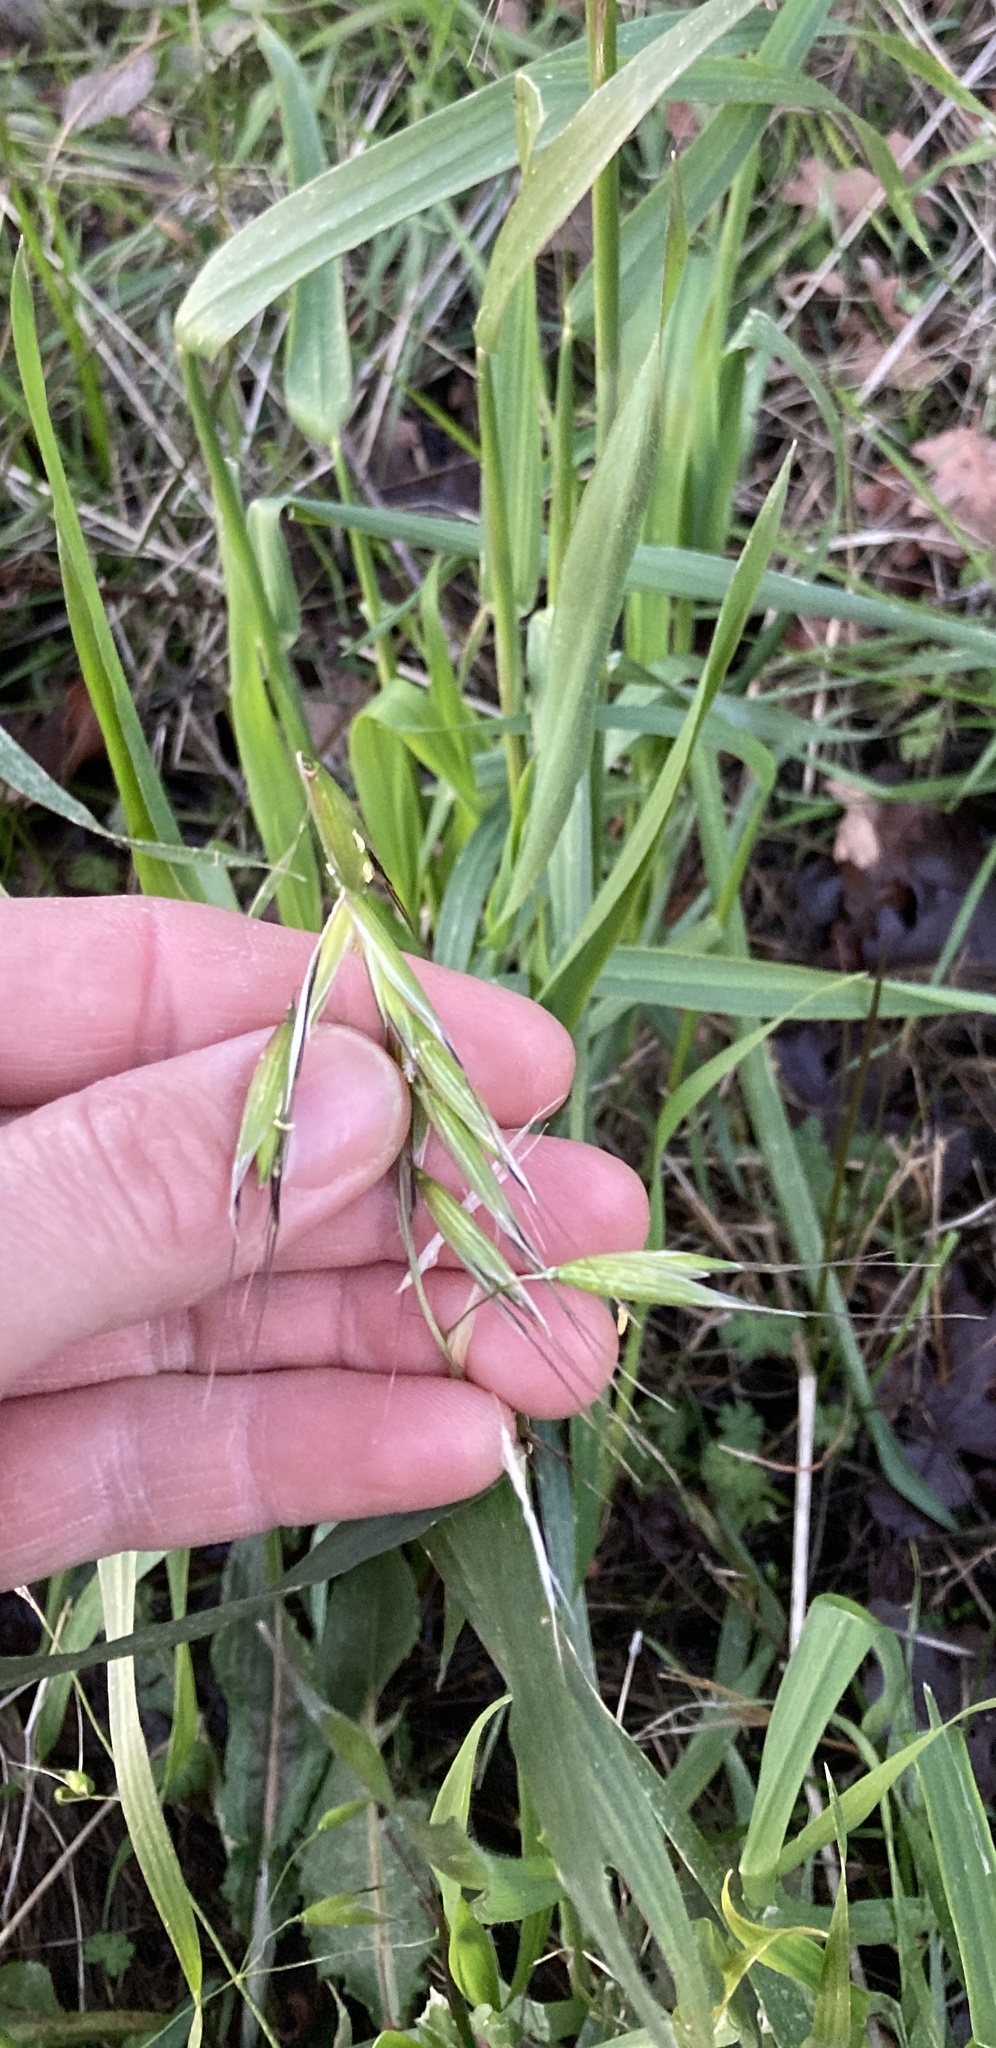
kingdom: Plantae
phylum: Tracheophyta
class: Liliopsida
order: Poales
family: Poaceae
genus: Avena
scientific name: Avena fatua
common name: Wild oat
